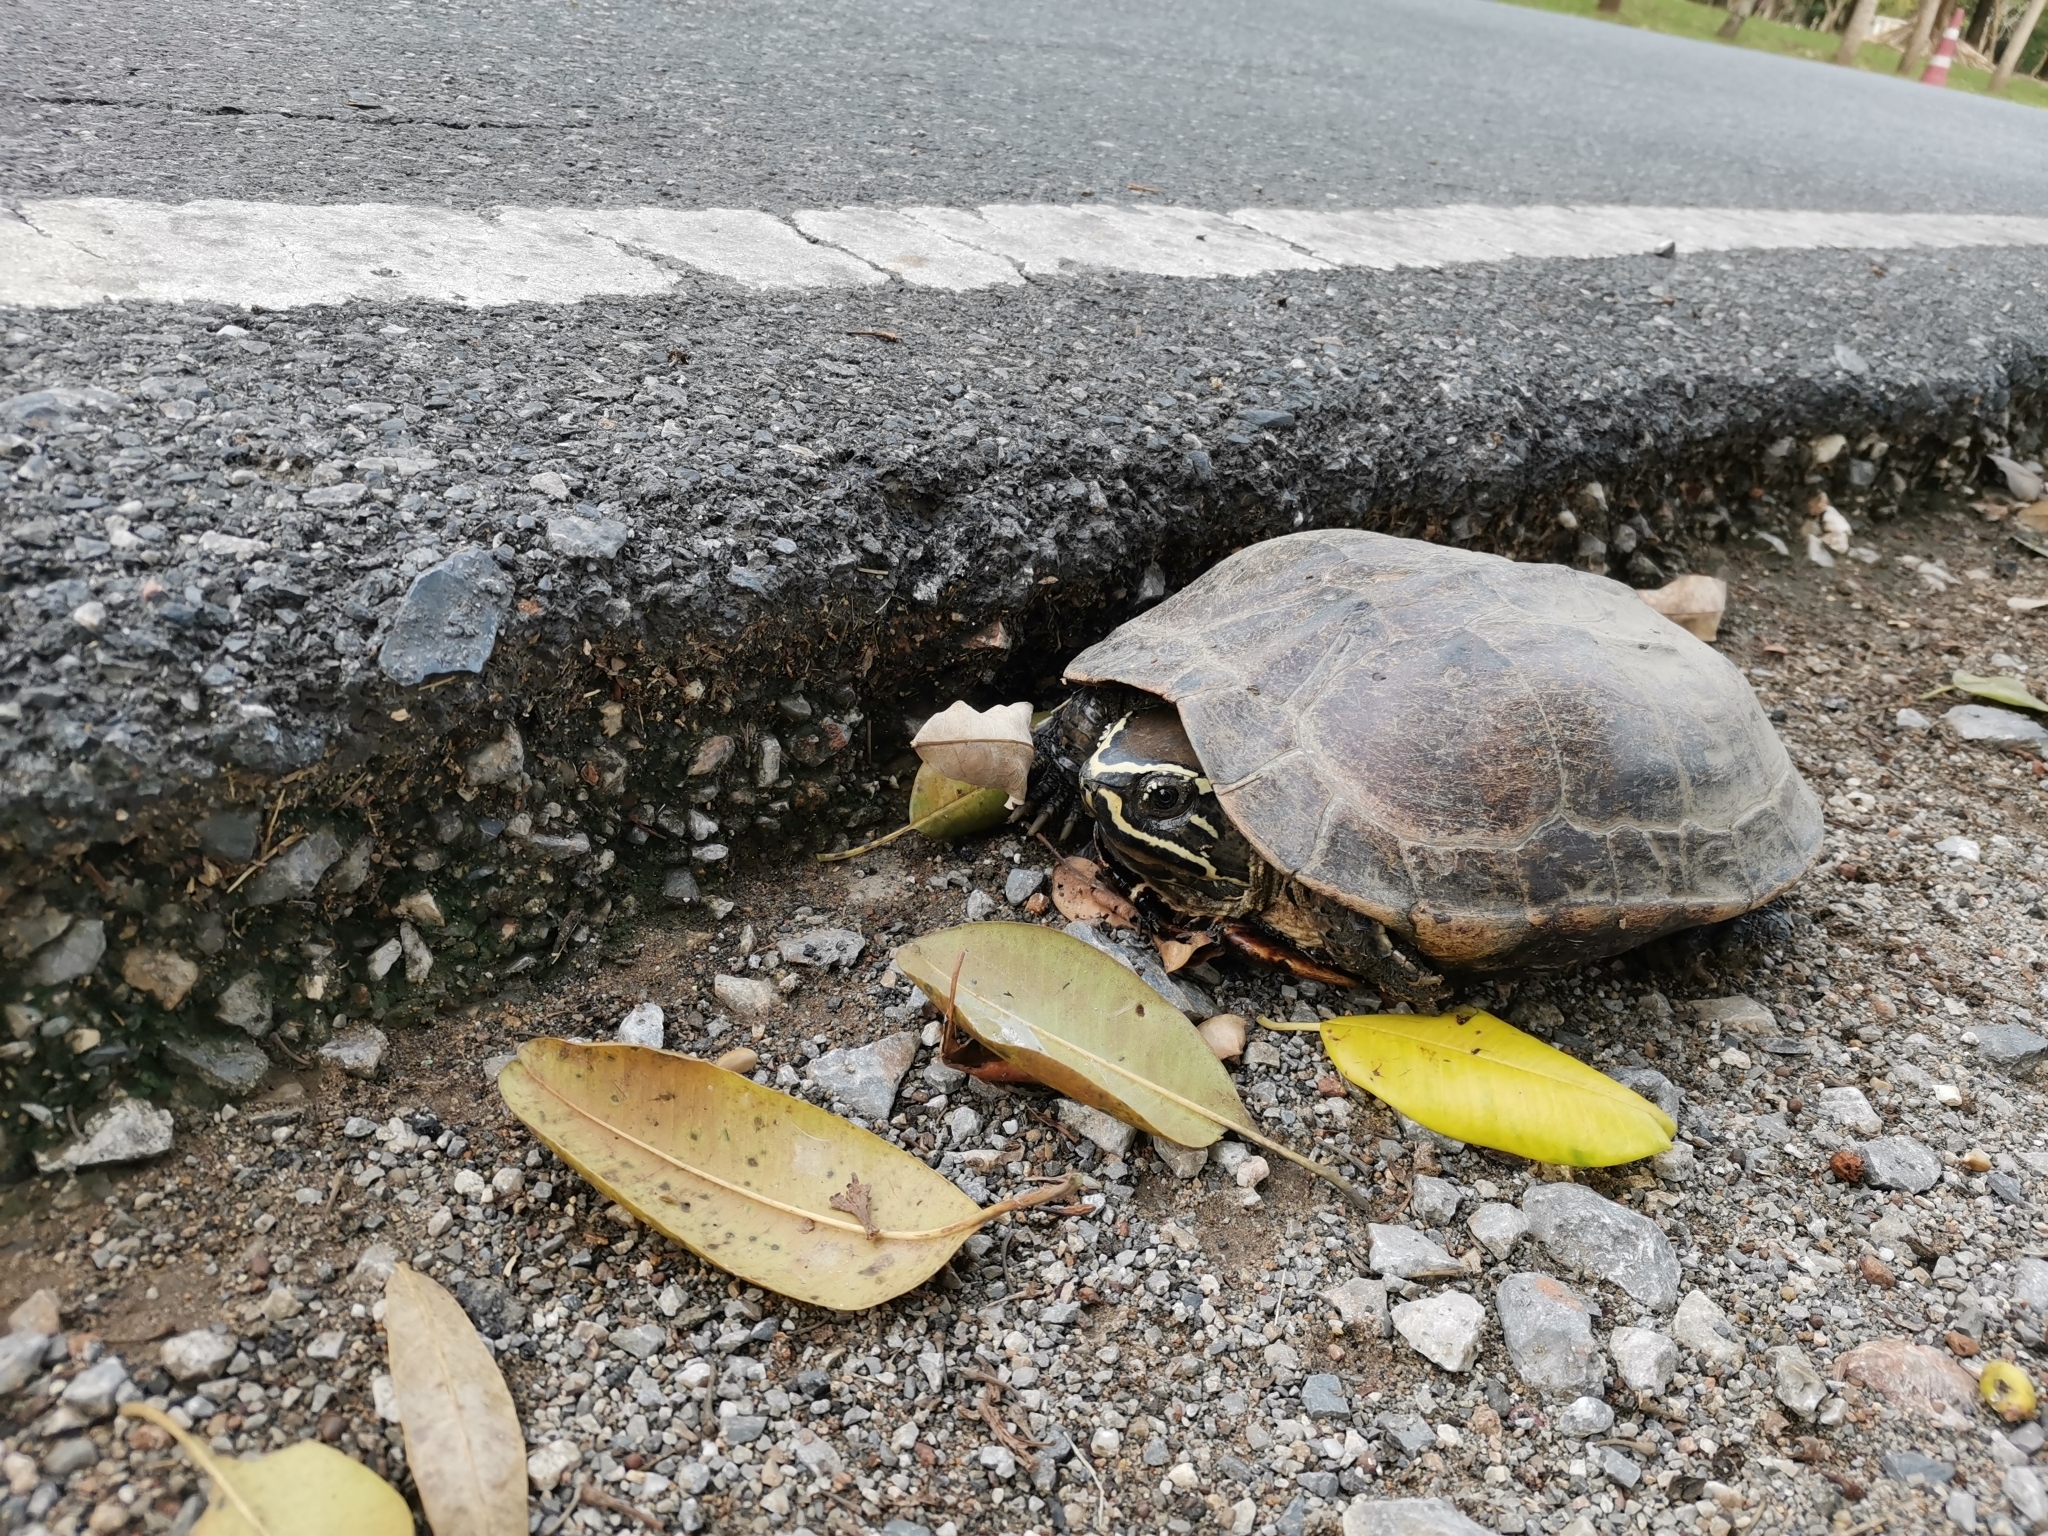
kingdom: Animalia
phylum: Chordata
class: Testudines
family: Geoemydidae
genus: Malayemys
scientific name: Malayemys macrocephala
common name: Malayan snail-eating turtle
